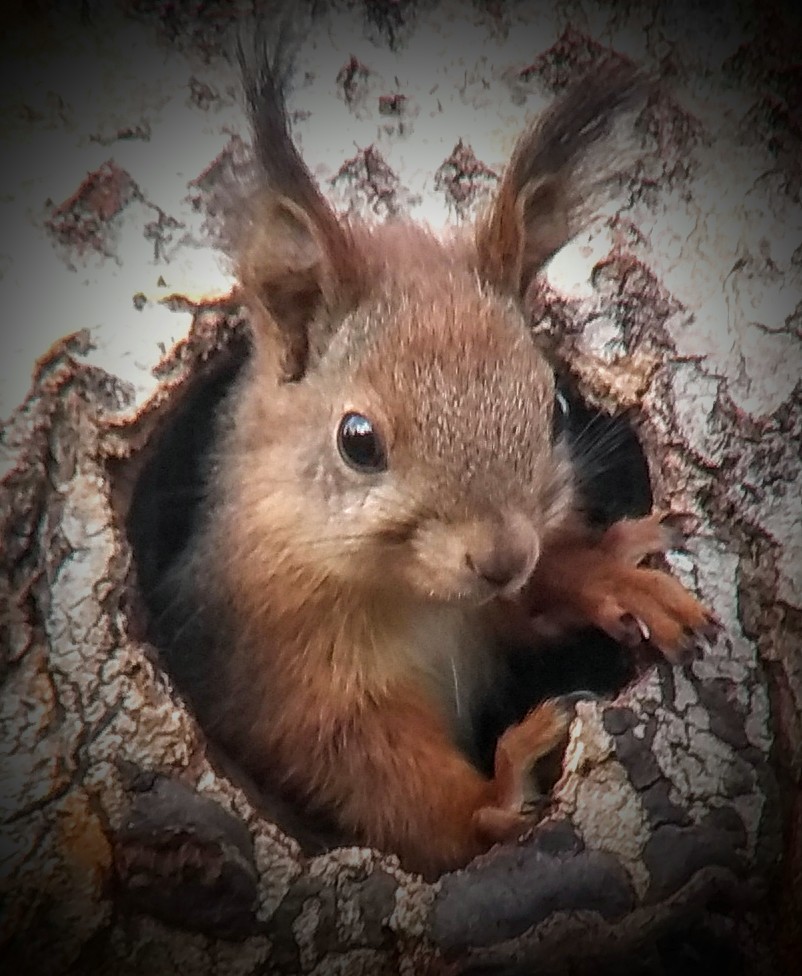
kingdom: Animalia
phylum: Chordata
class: Mammalia
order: Rodentia
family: Sciuridae
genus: Sciurus
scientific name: Sciurus vulgaris
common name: Eurasian red squirrel
